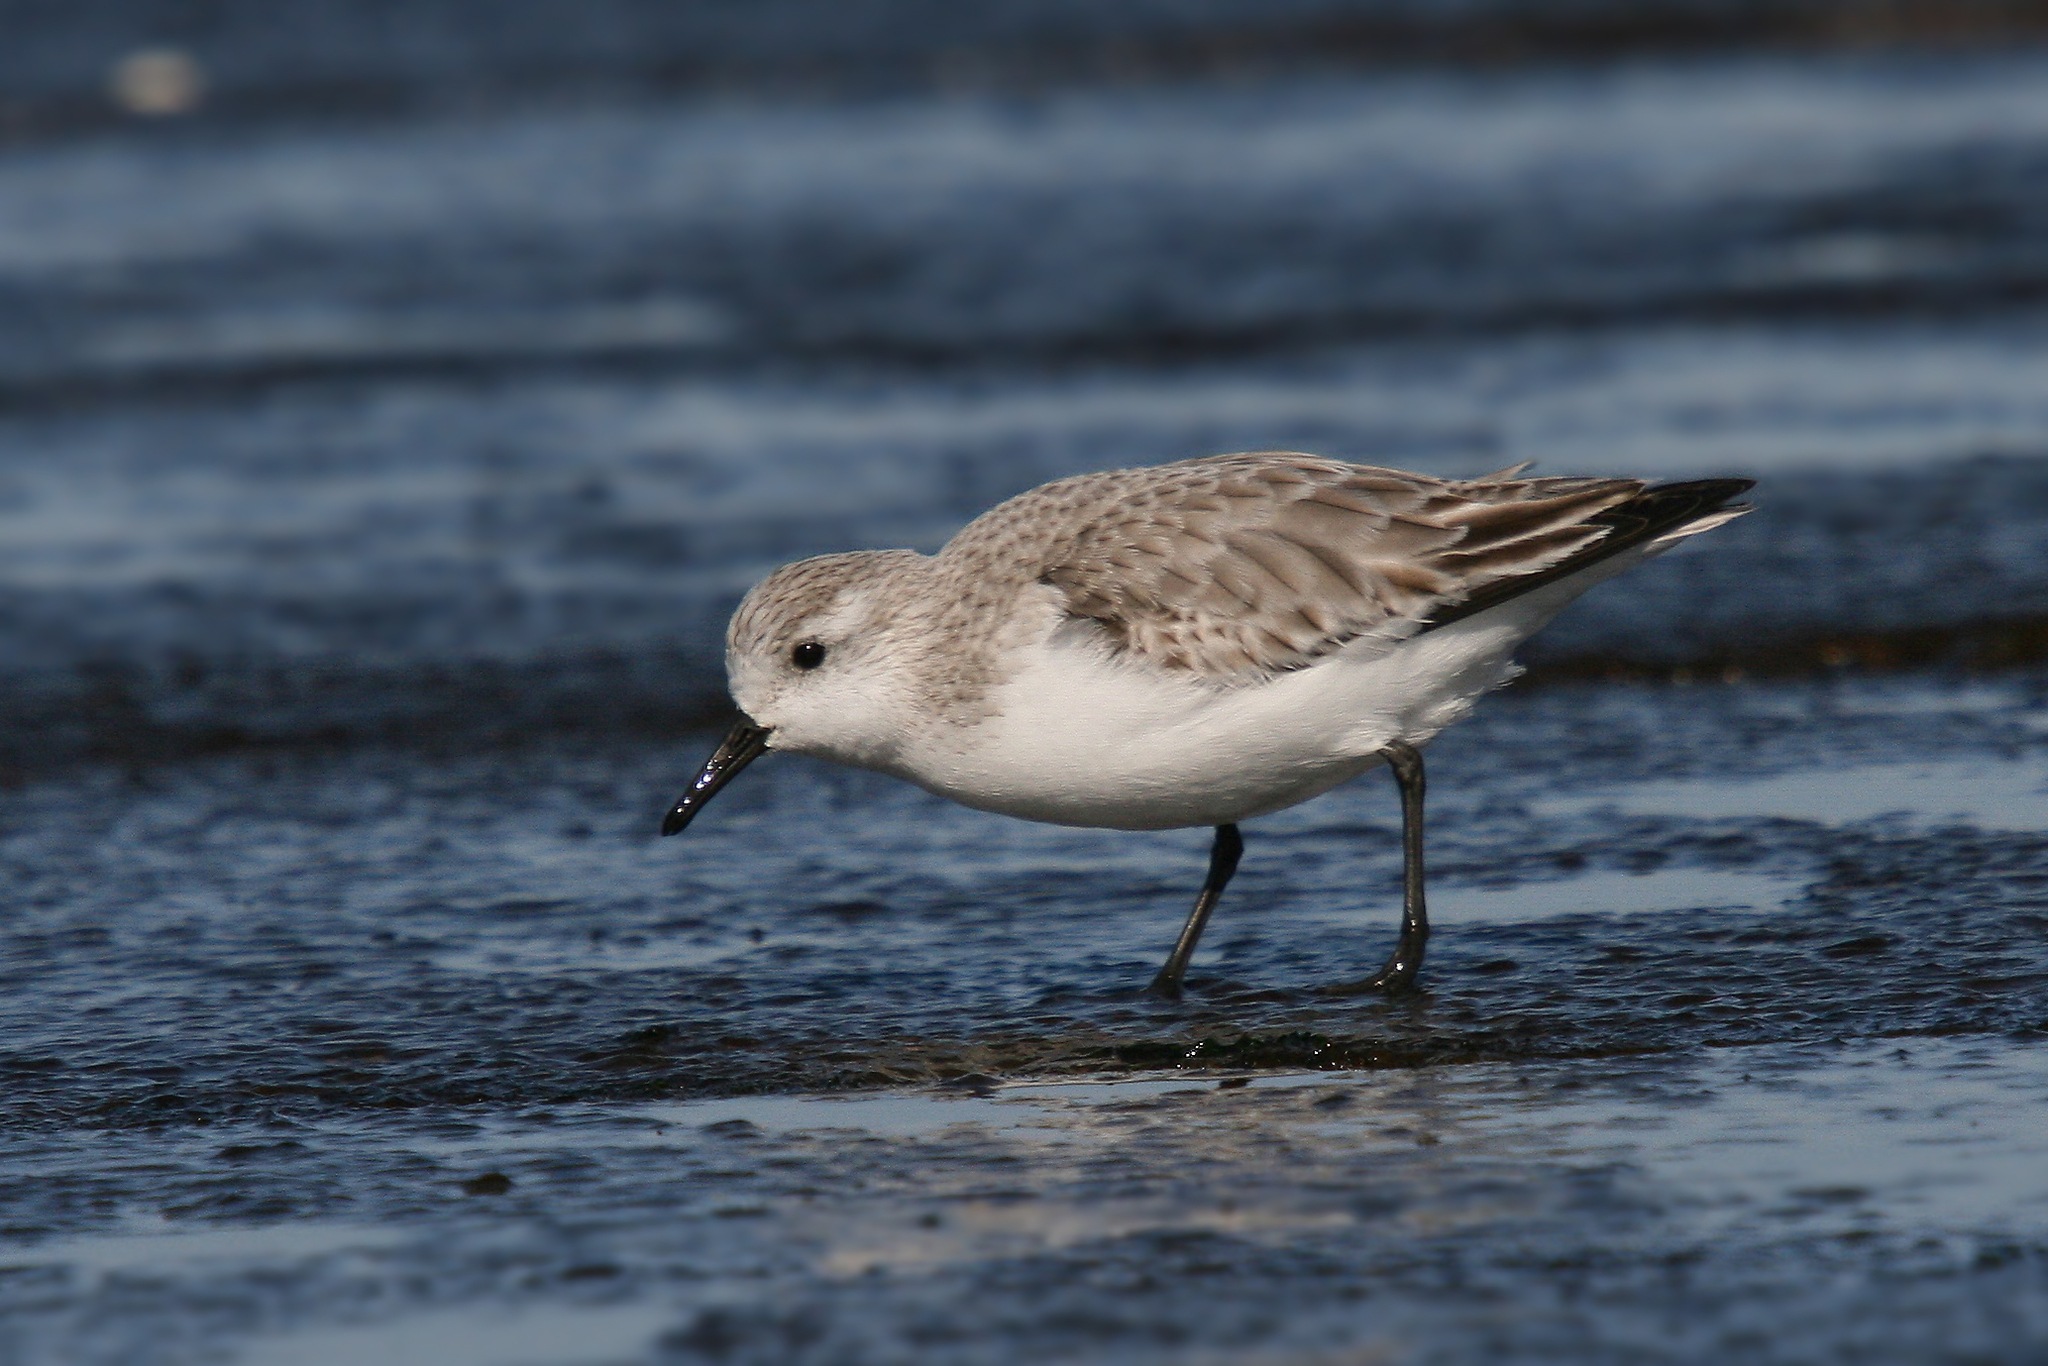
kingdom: Animalia
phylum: Chordata
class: Aves
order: Charadriiformes
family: Scolopacidae
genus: Calidris
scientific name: Calidris alba
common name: Sanderling
